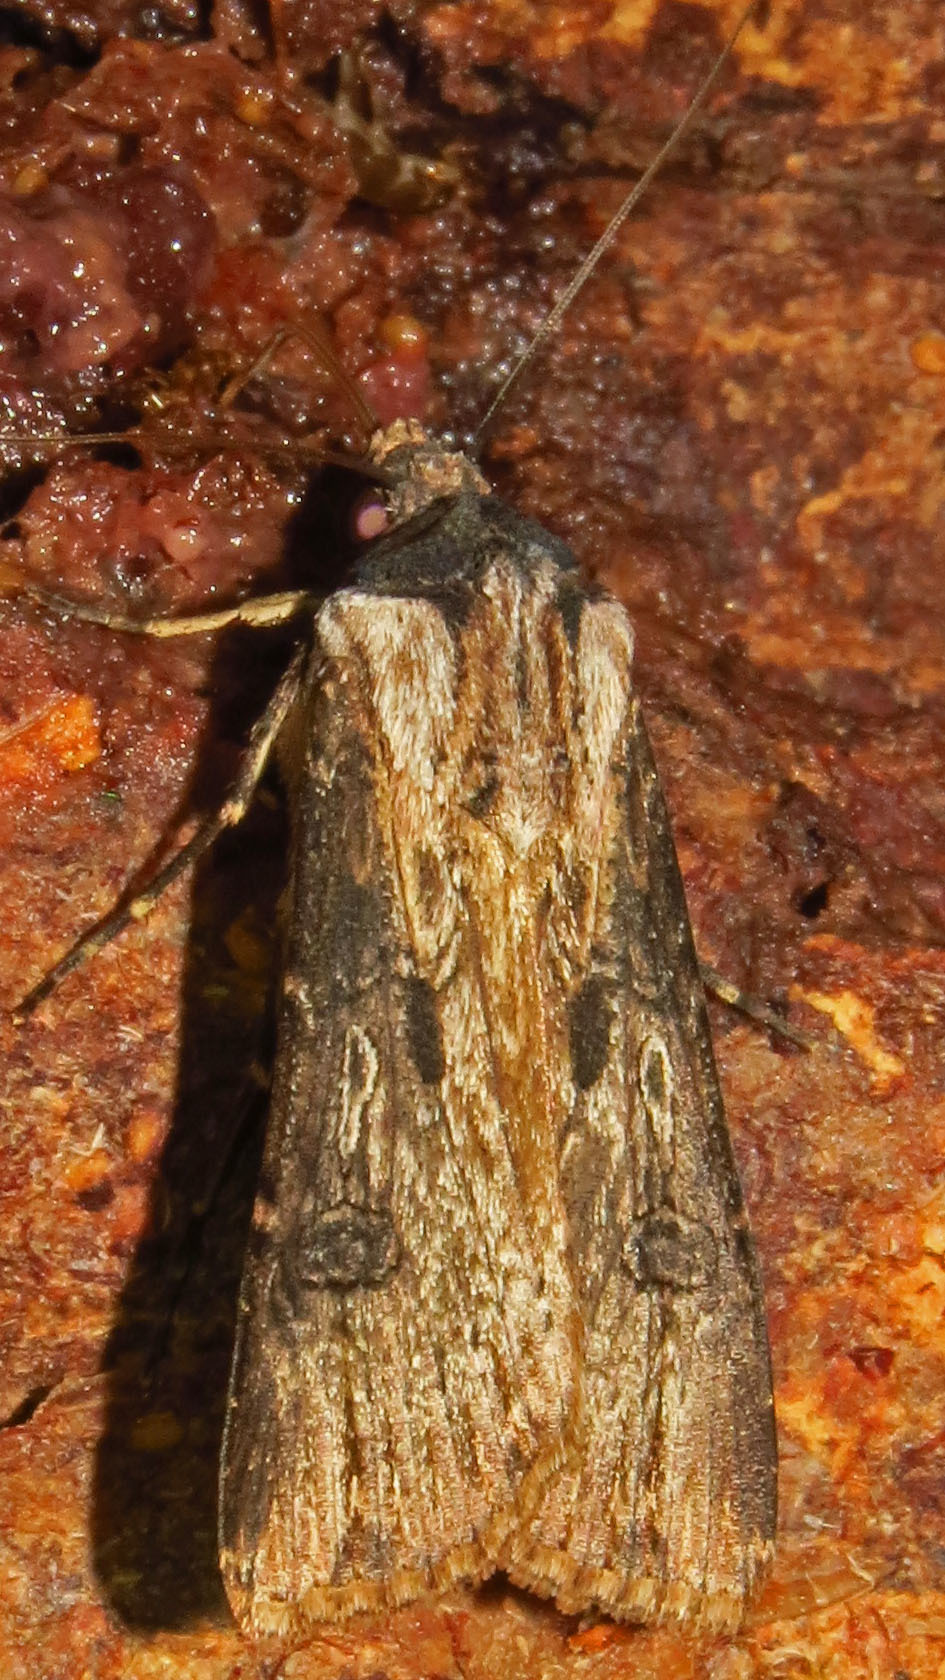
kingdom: Animalia
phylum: Arthropoda
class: Insecta
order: Lepidoptera
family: Noctuidae
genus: Agrotis
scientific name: Agrotis malefida
